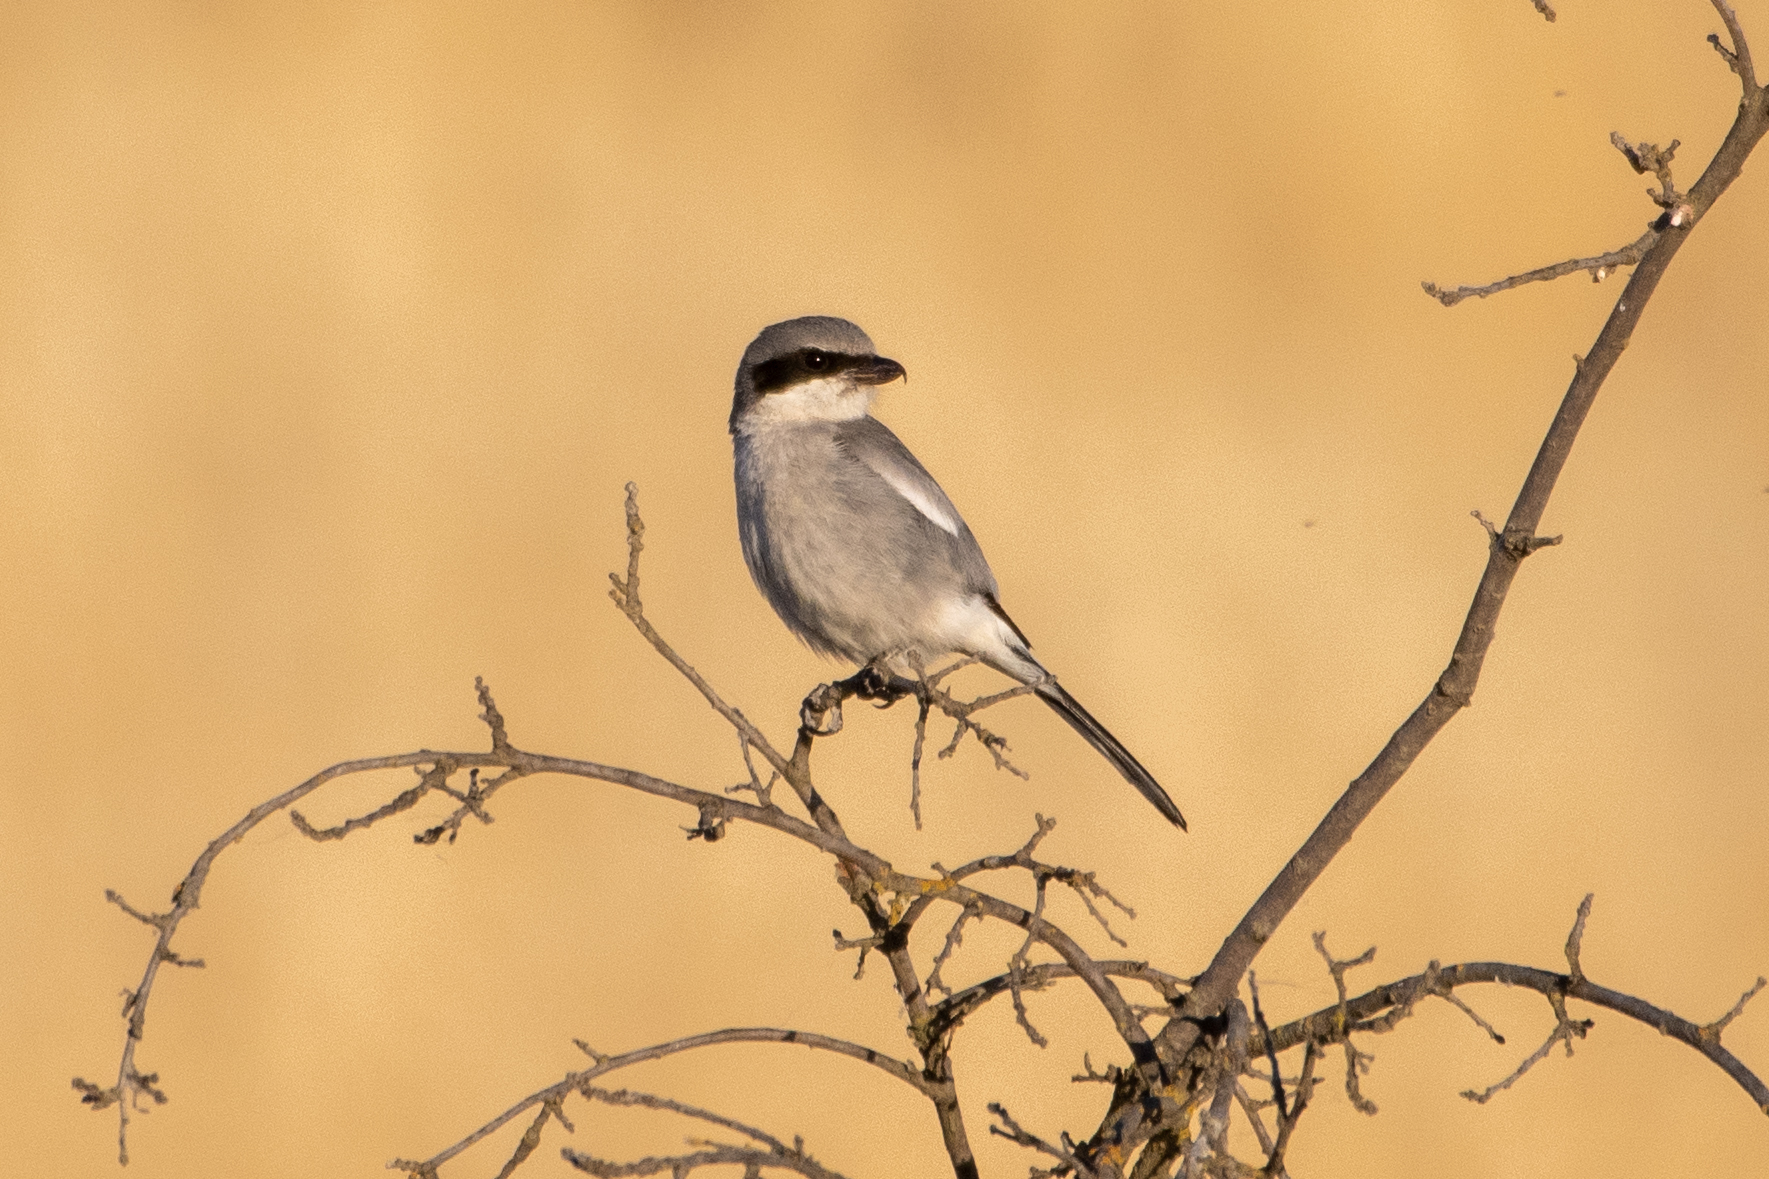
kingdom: Animalia
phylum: Chordata
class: Aves
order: Passeriformes
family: Laniidae
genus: Lanius
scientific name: Lanius ludovicianus
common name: Loggerhead shrike
